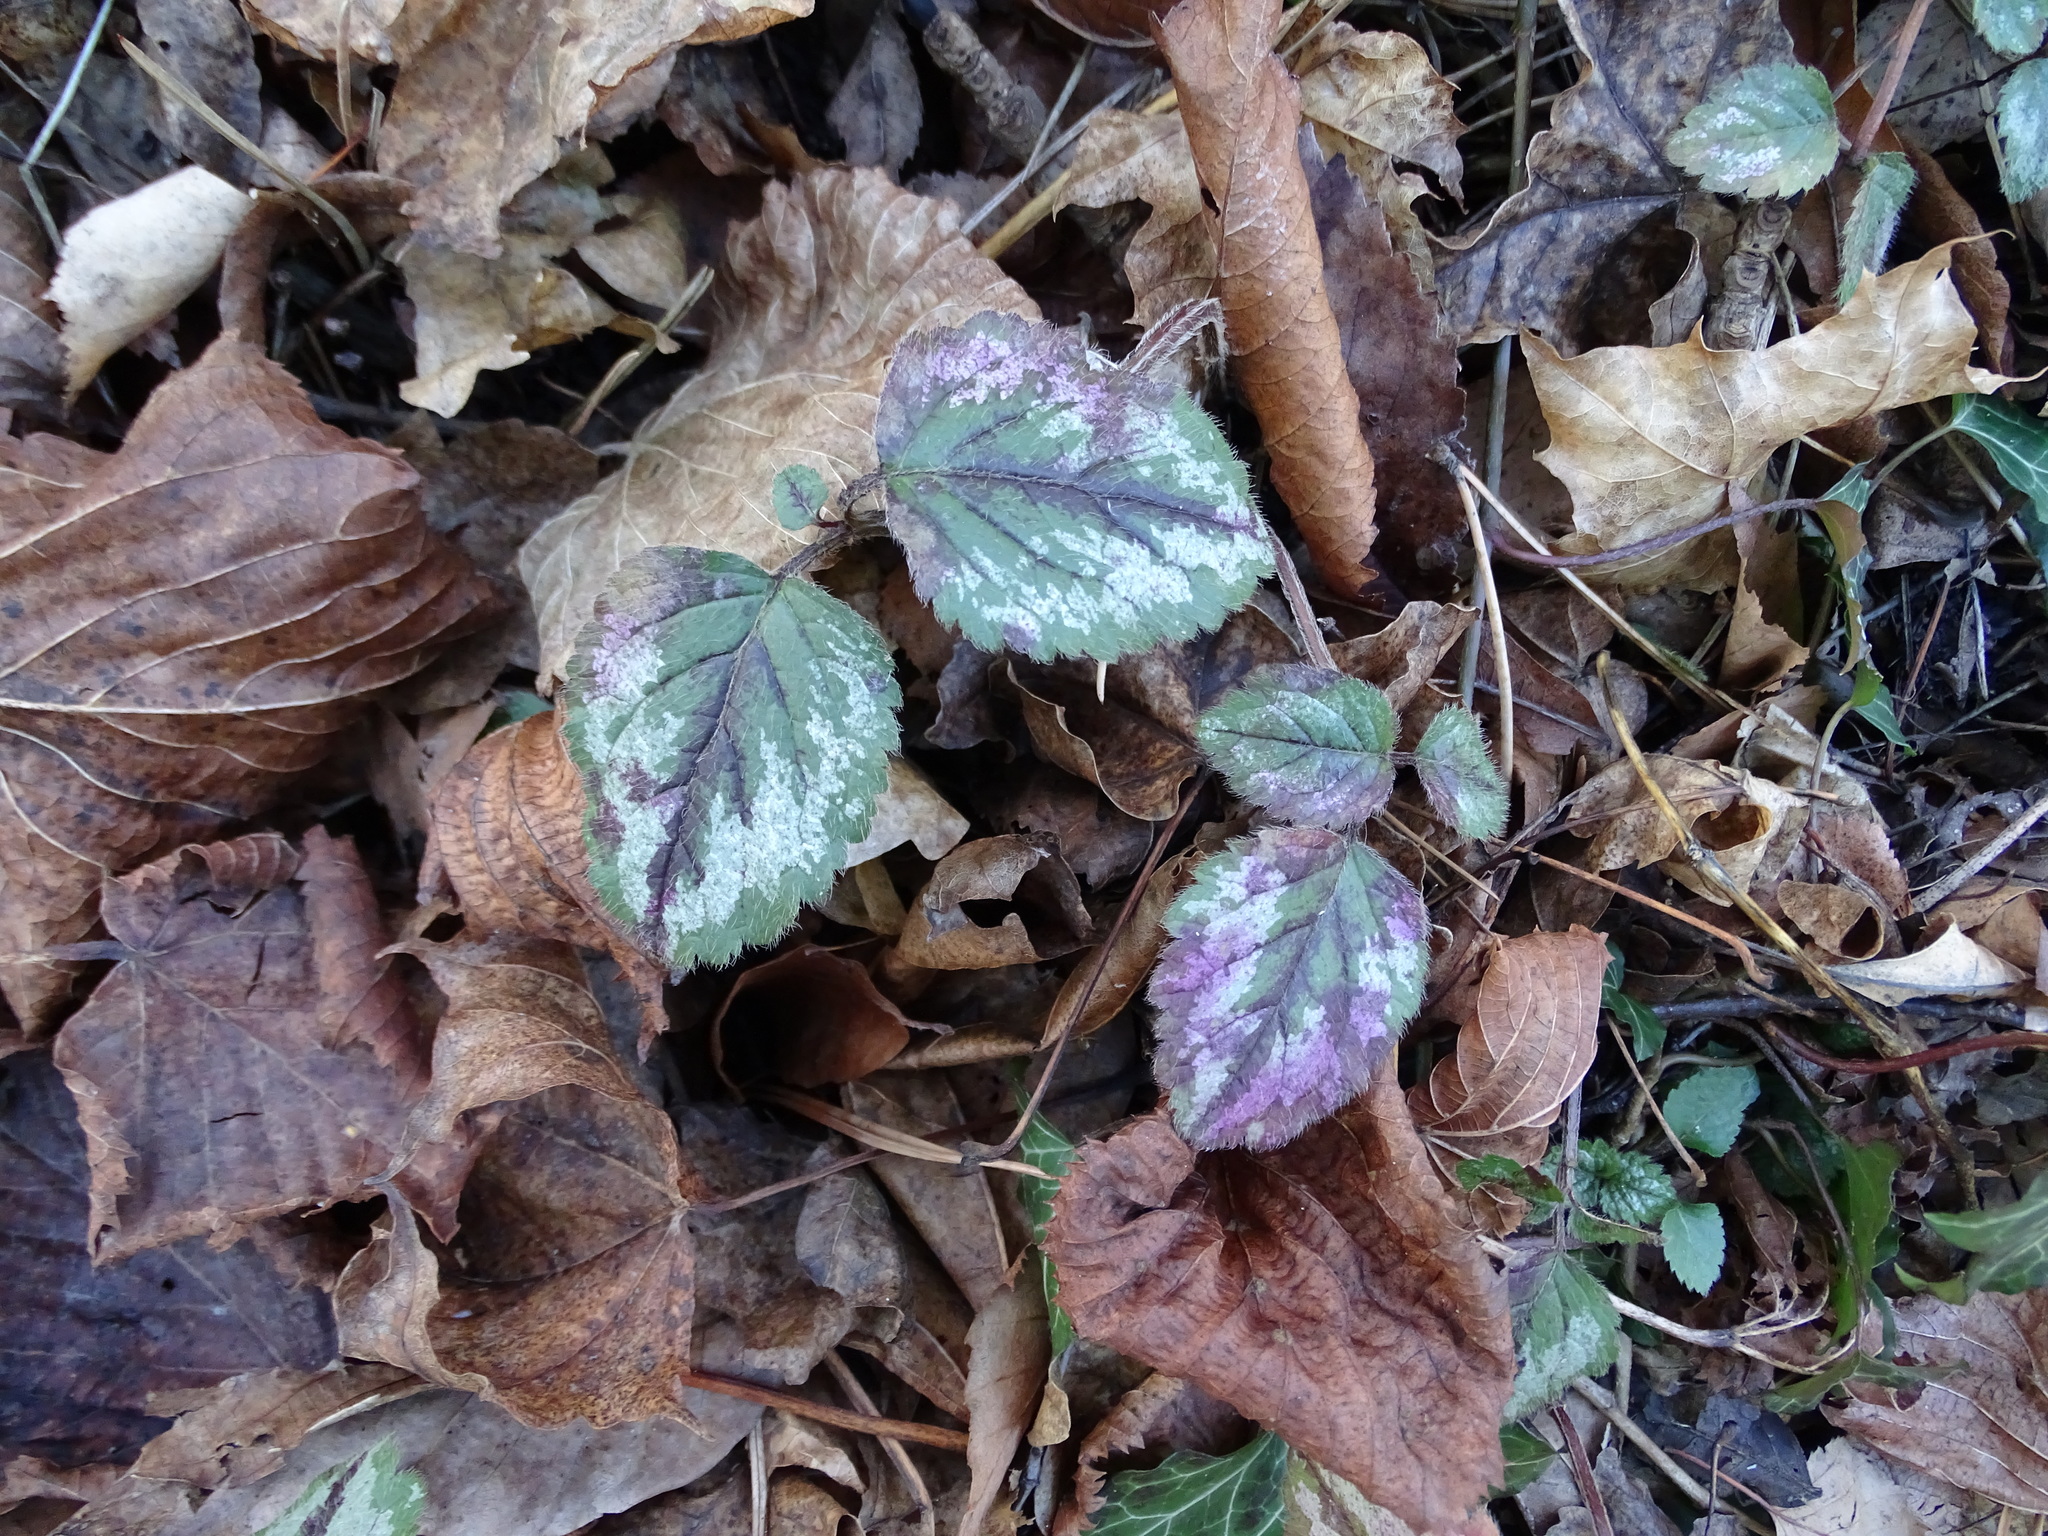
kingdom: Plantae
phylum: Tracheophyta
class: Magnoliopsida
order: Lamiales
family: Lamiaceae
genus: Lamium
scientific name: Lamium galeobdolon
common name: Yellow archangel
